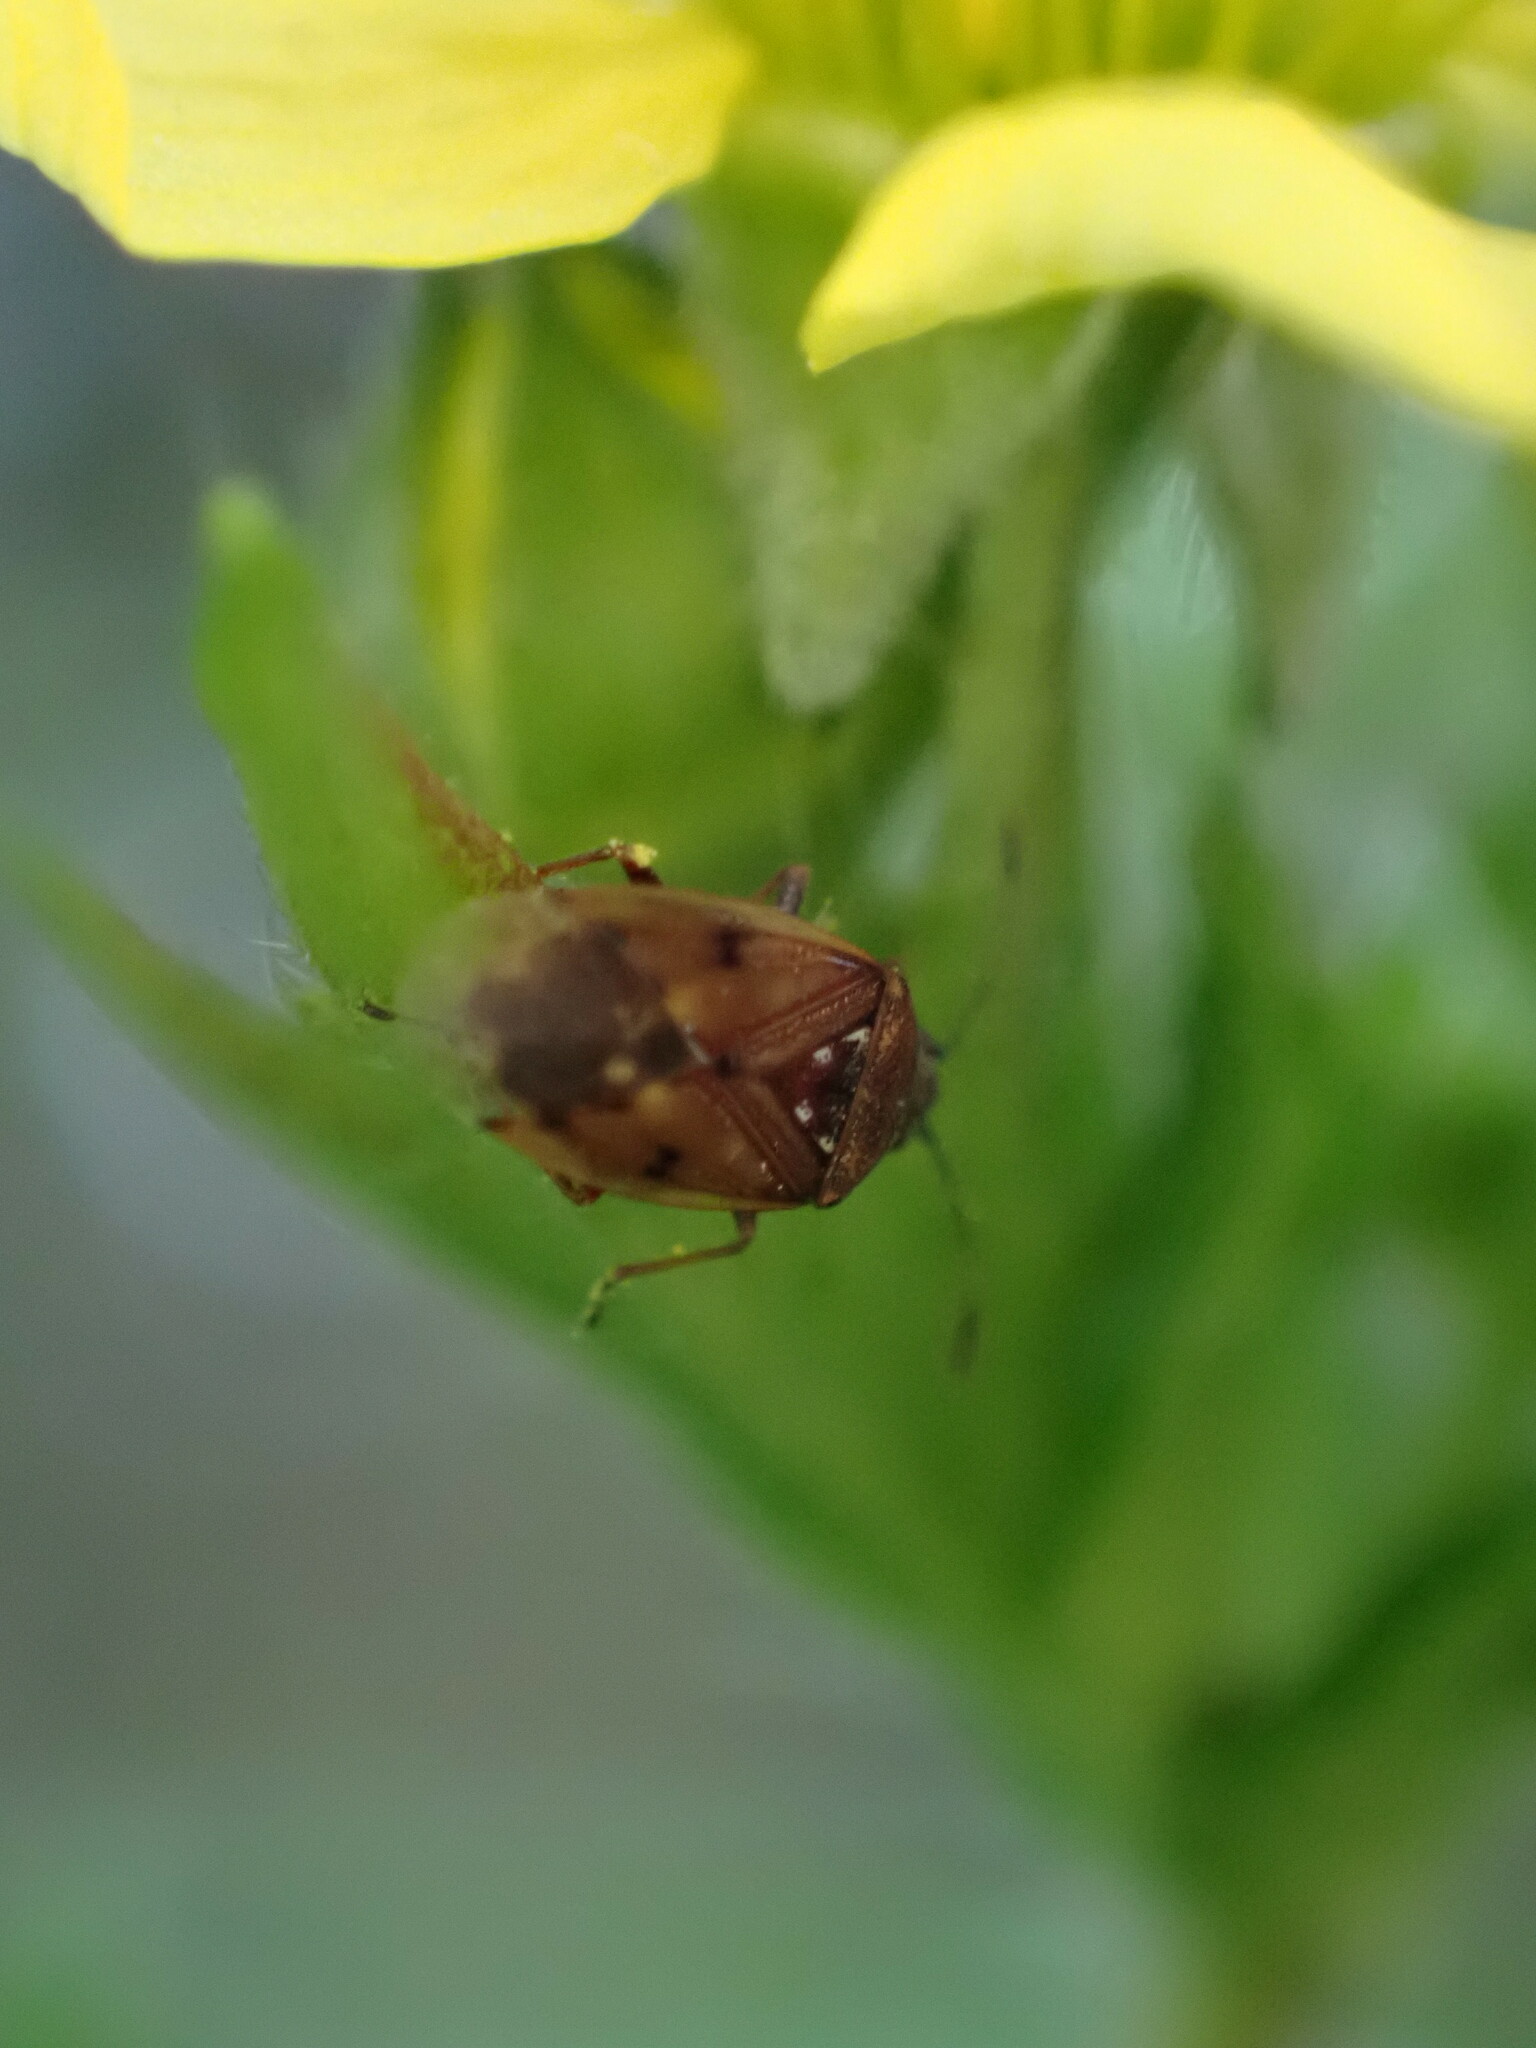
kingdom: Animalia
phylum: Arthropoda
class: Insecta
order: Hemiptera
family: Lygaeidae
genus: Kleidocerys
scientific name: Kleidocerys resedae
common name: Birch catkin bug
